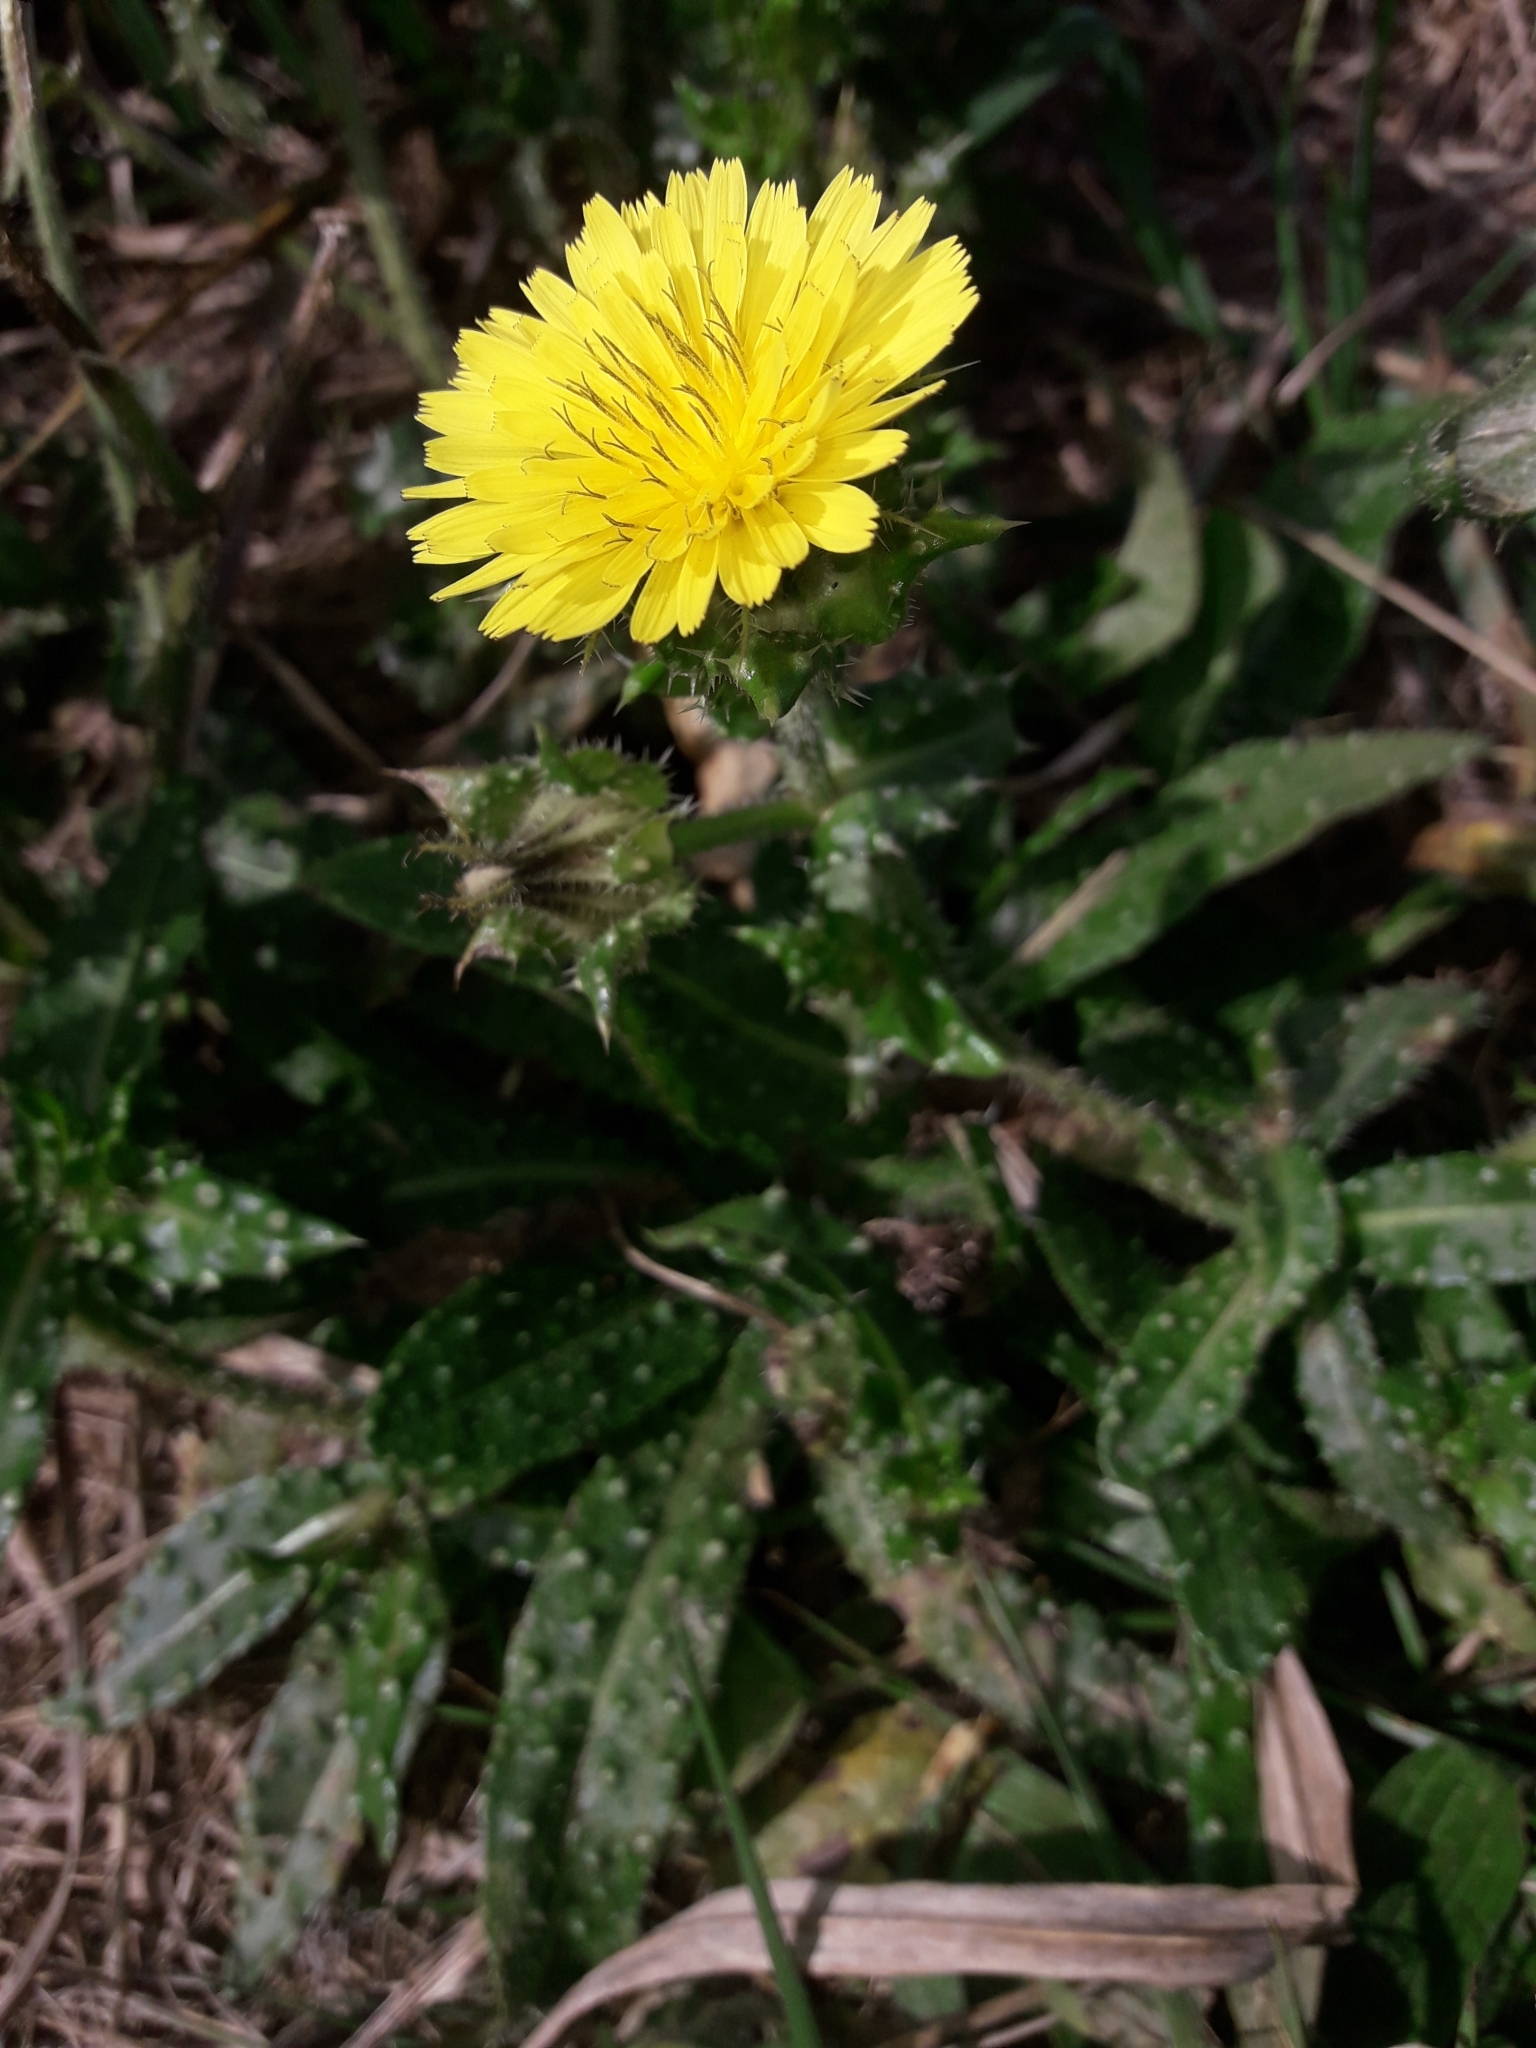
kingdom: Plantae
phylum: Tracheophyta
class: Magnoliopsida
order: Asterales
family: Asteraceae
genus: Helminthotheca
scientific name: Helminthotheca echioides
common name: Ox-tongue
